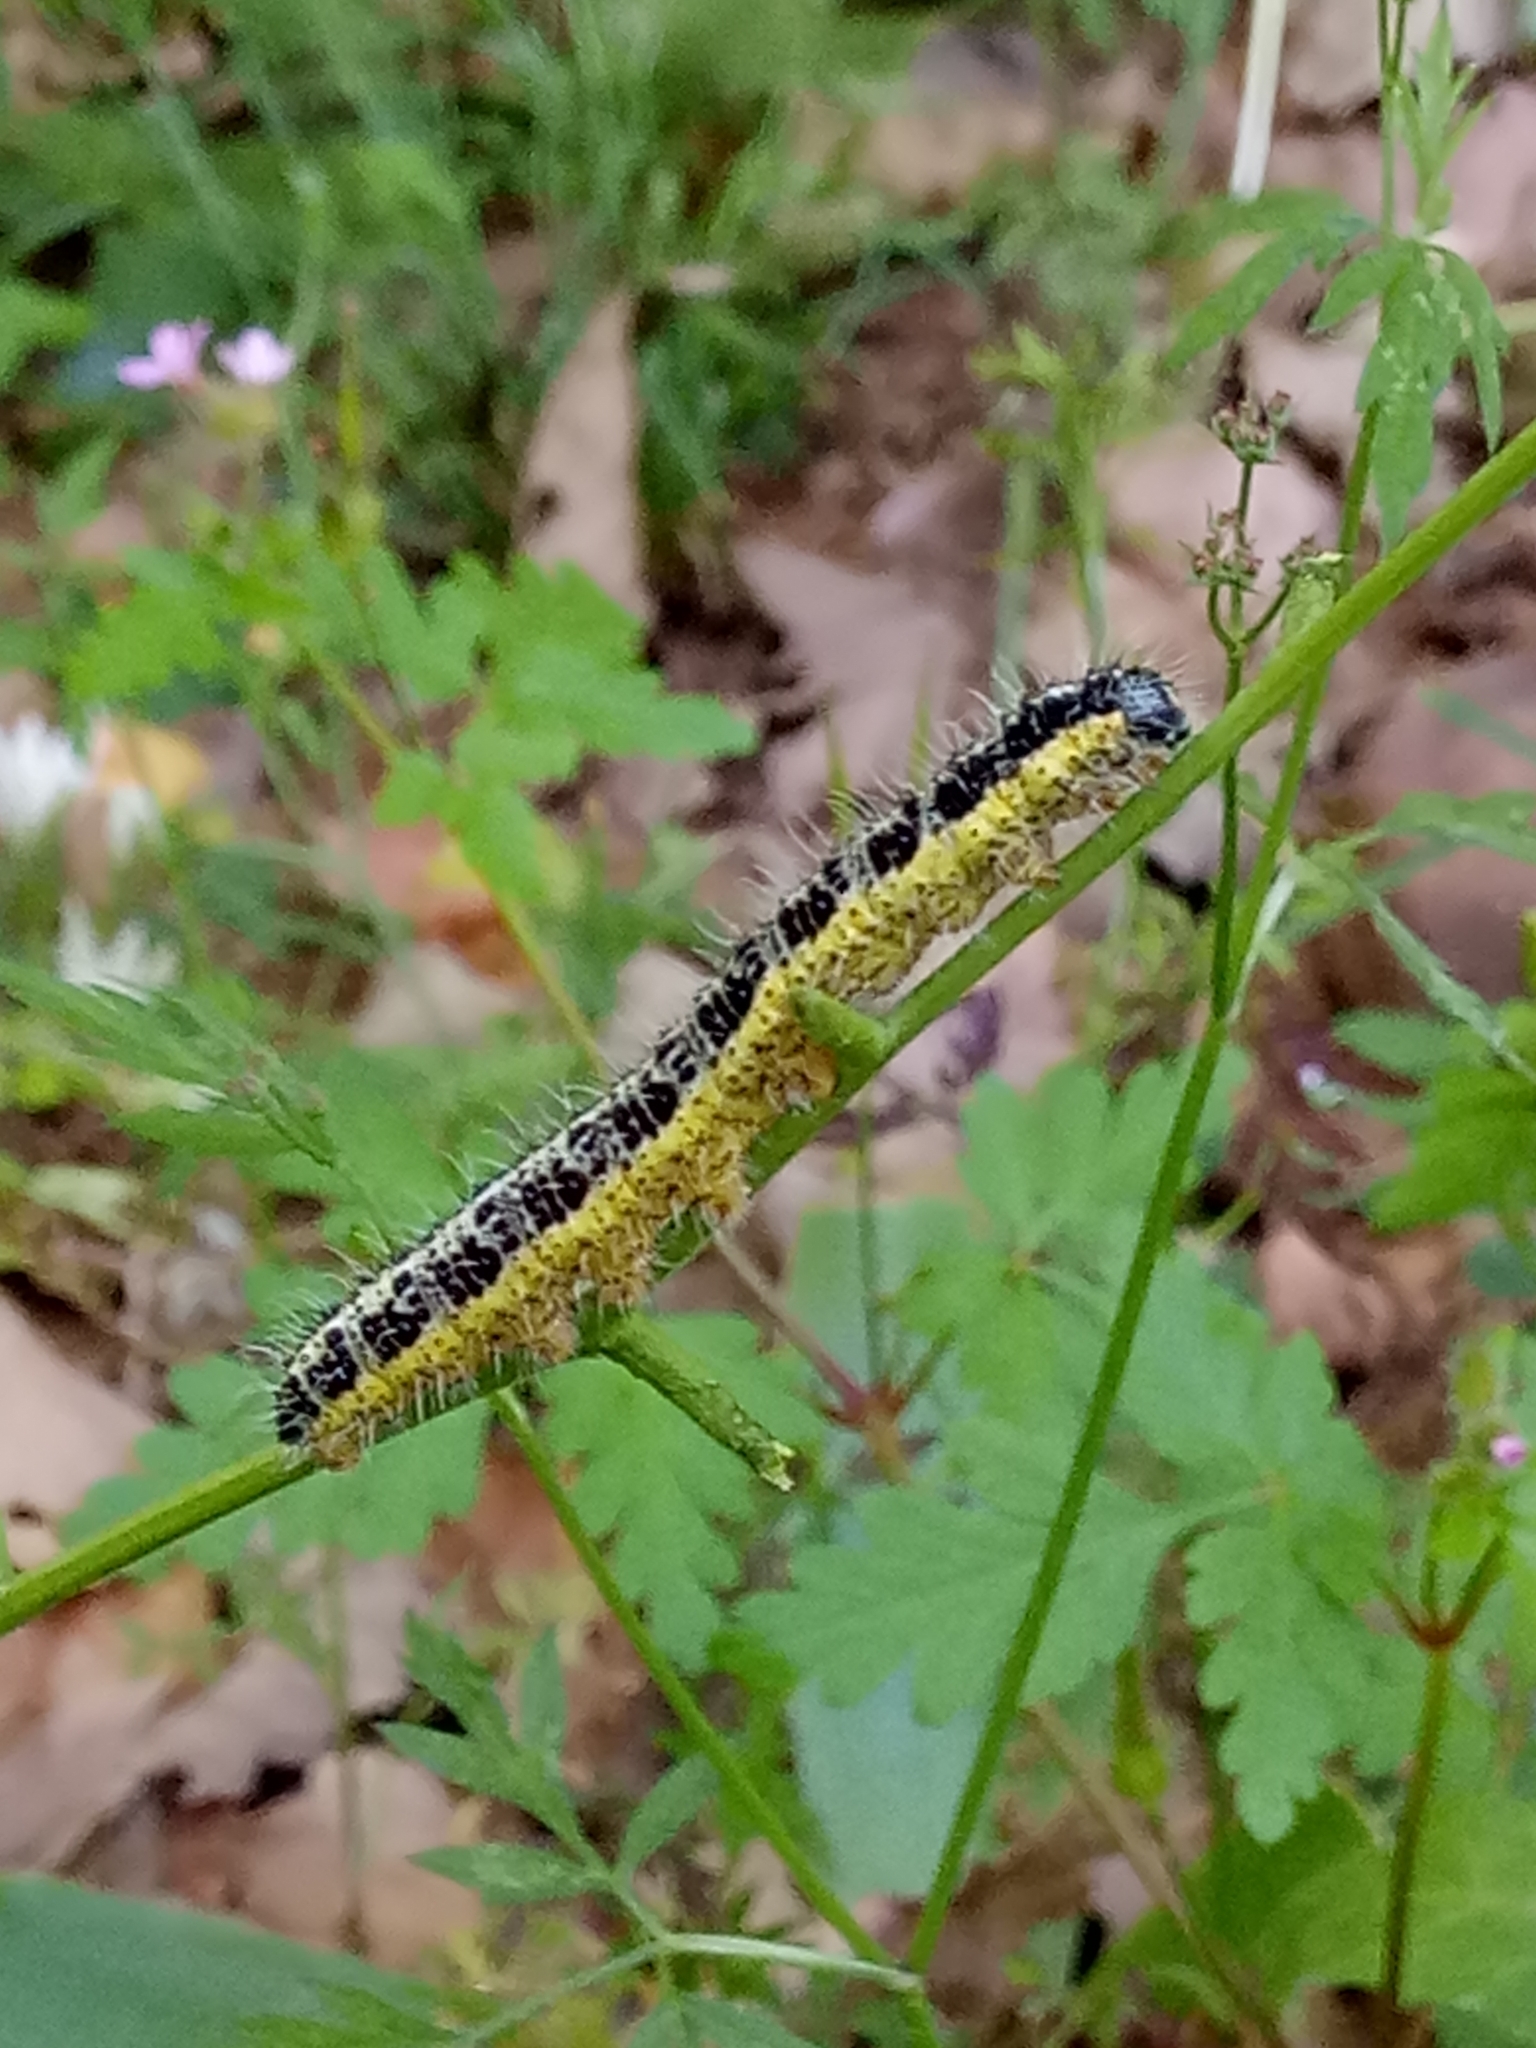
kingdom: Animalia
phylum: Arthropoda
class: Insecta
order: Lepidoptera
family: Pieridae
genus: Pieris
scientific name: Pieris brassicae
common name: Large white
